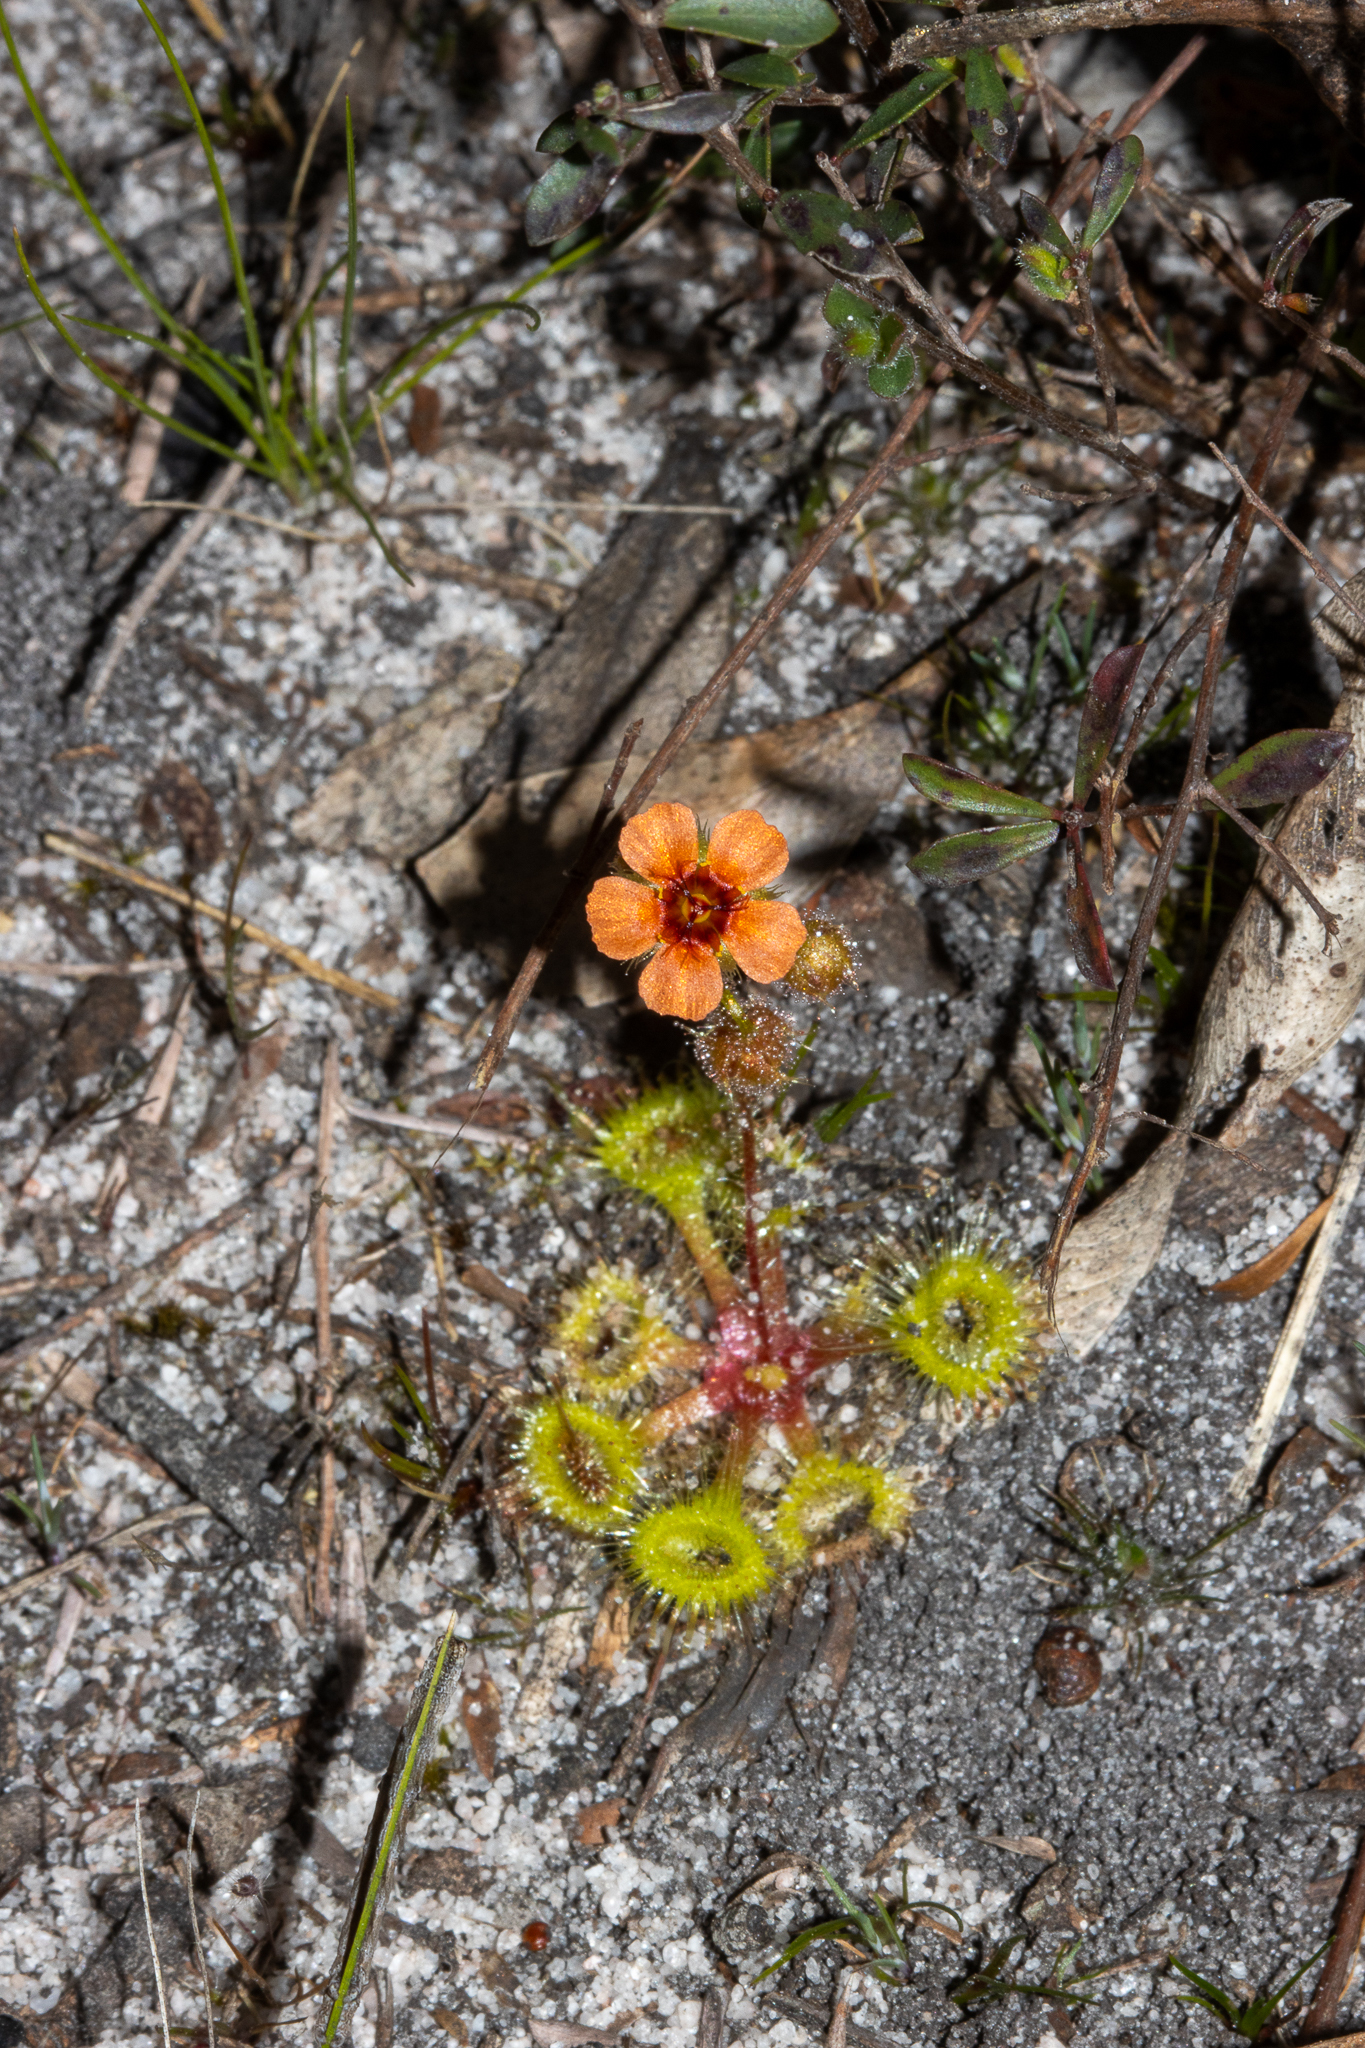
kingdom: Plantae
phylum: Tracheophyta
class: Magnoliopsida
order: Caryophyllales
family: Droseraceae
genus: Drosera
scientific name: Drosera glanduligera
